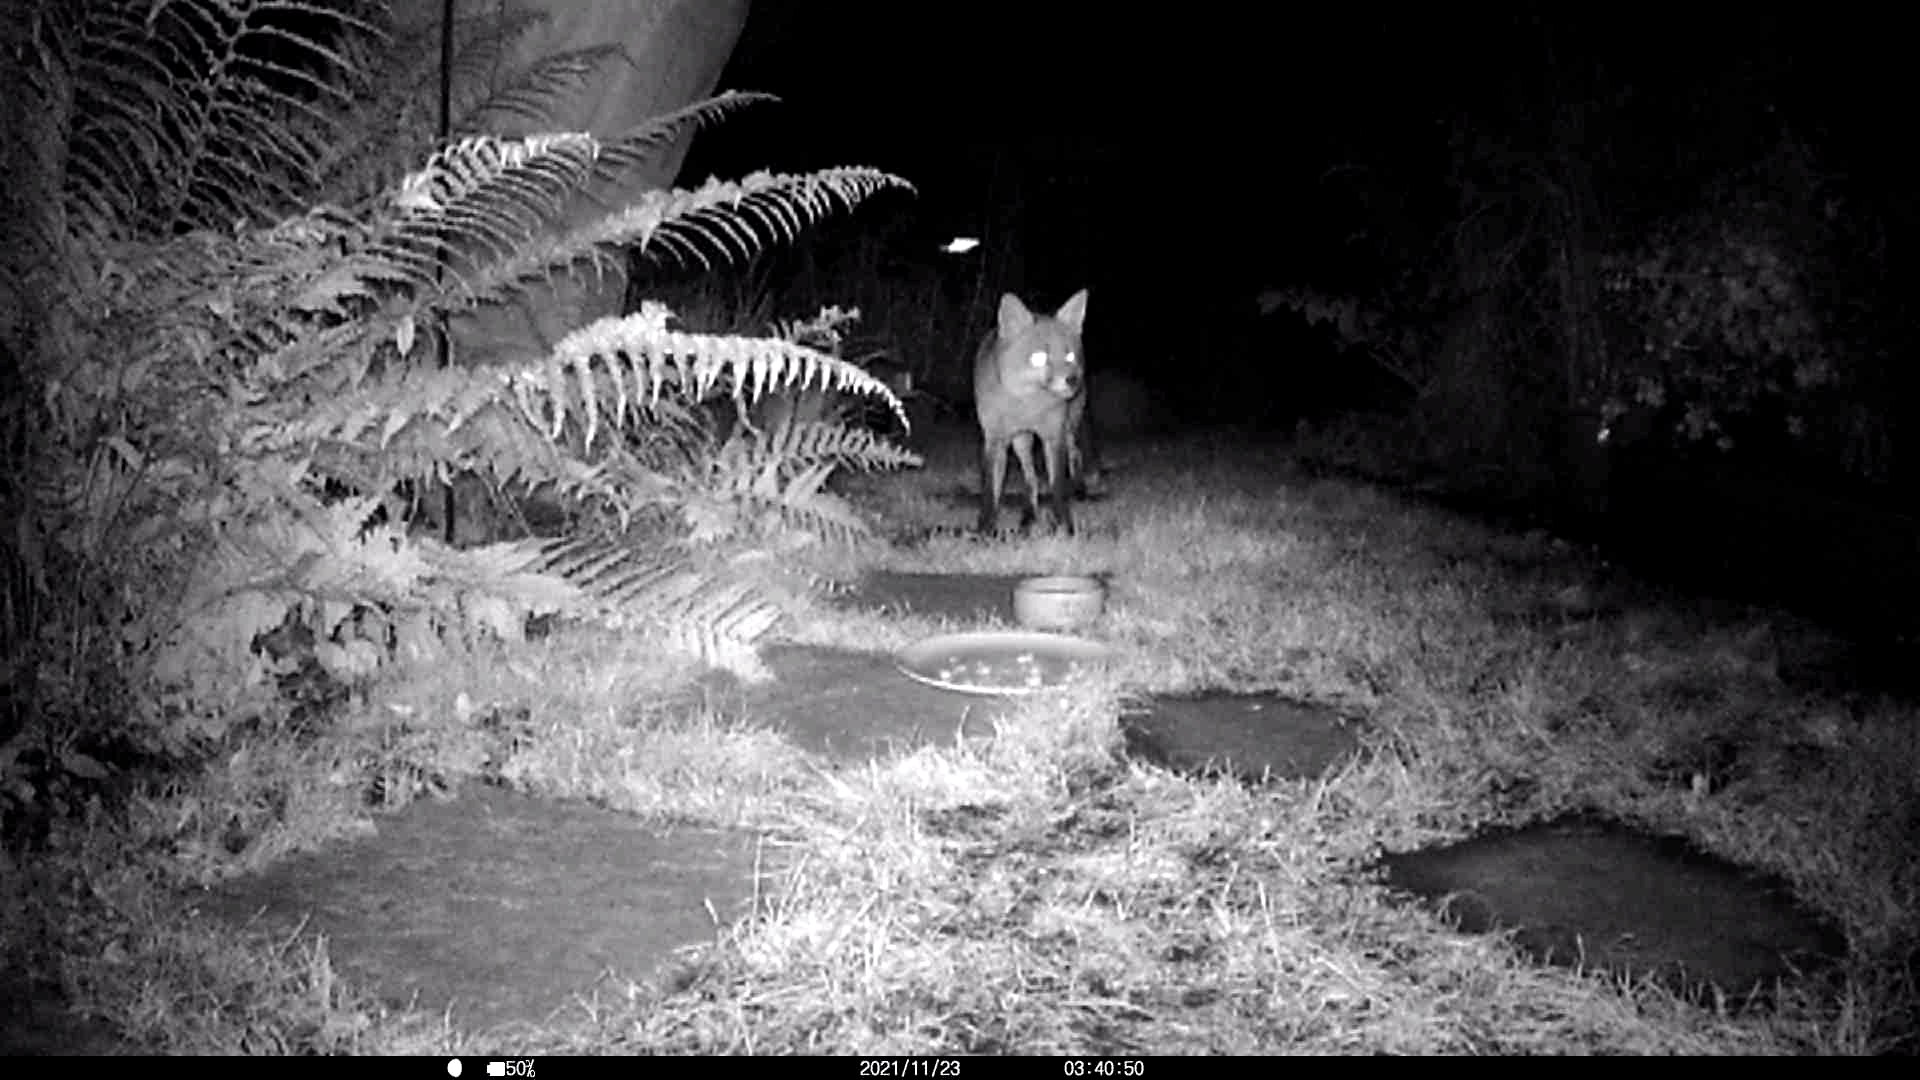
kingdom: Animalia
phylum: Chordata
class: Mammalia
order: Carnivora
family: Canidae
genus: Vulpes
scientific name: Vulpes vulpes
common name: Red fox
